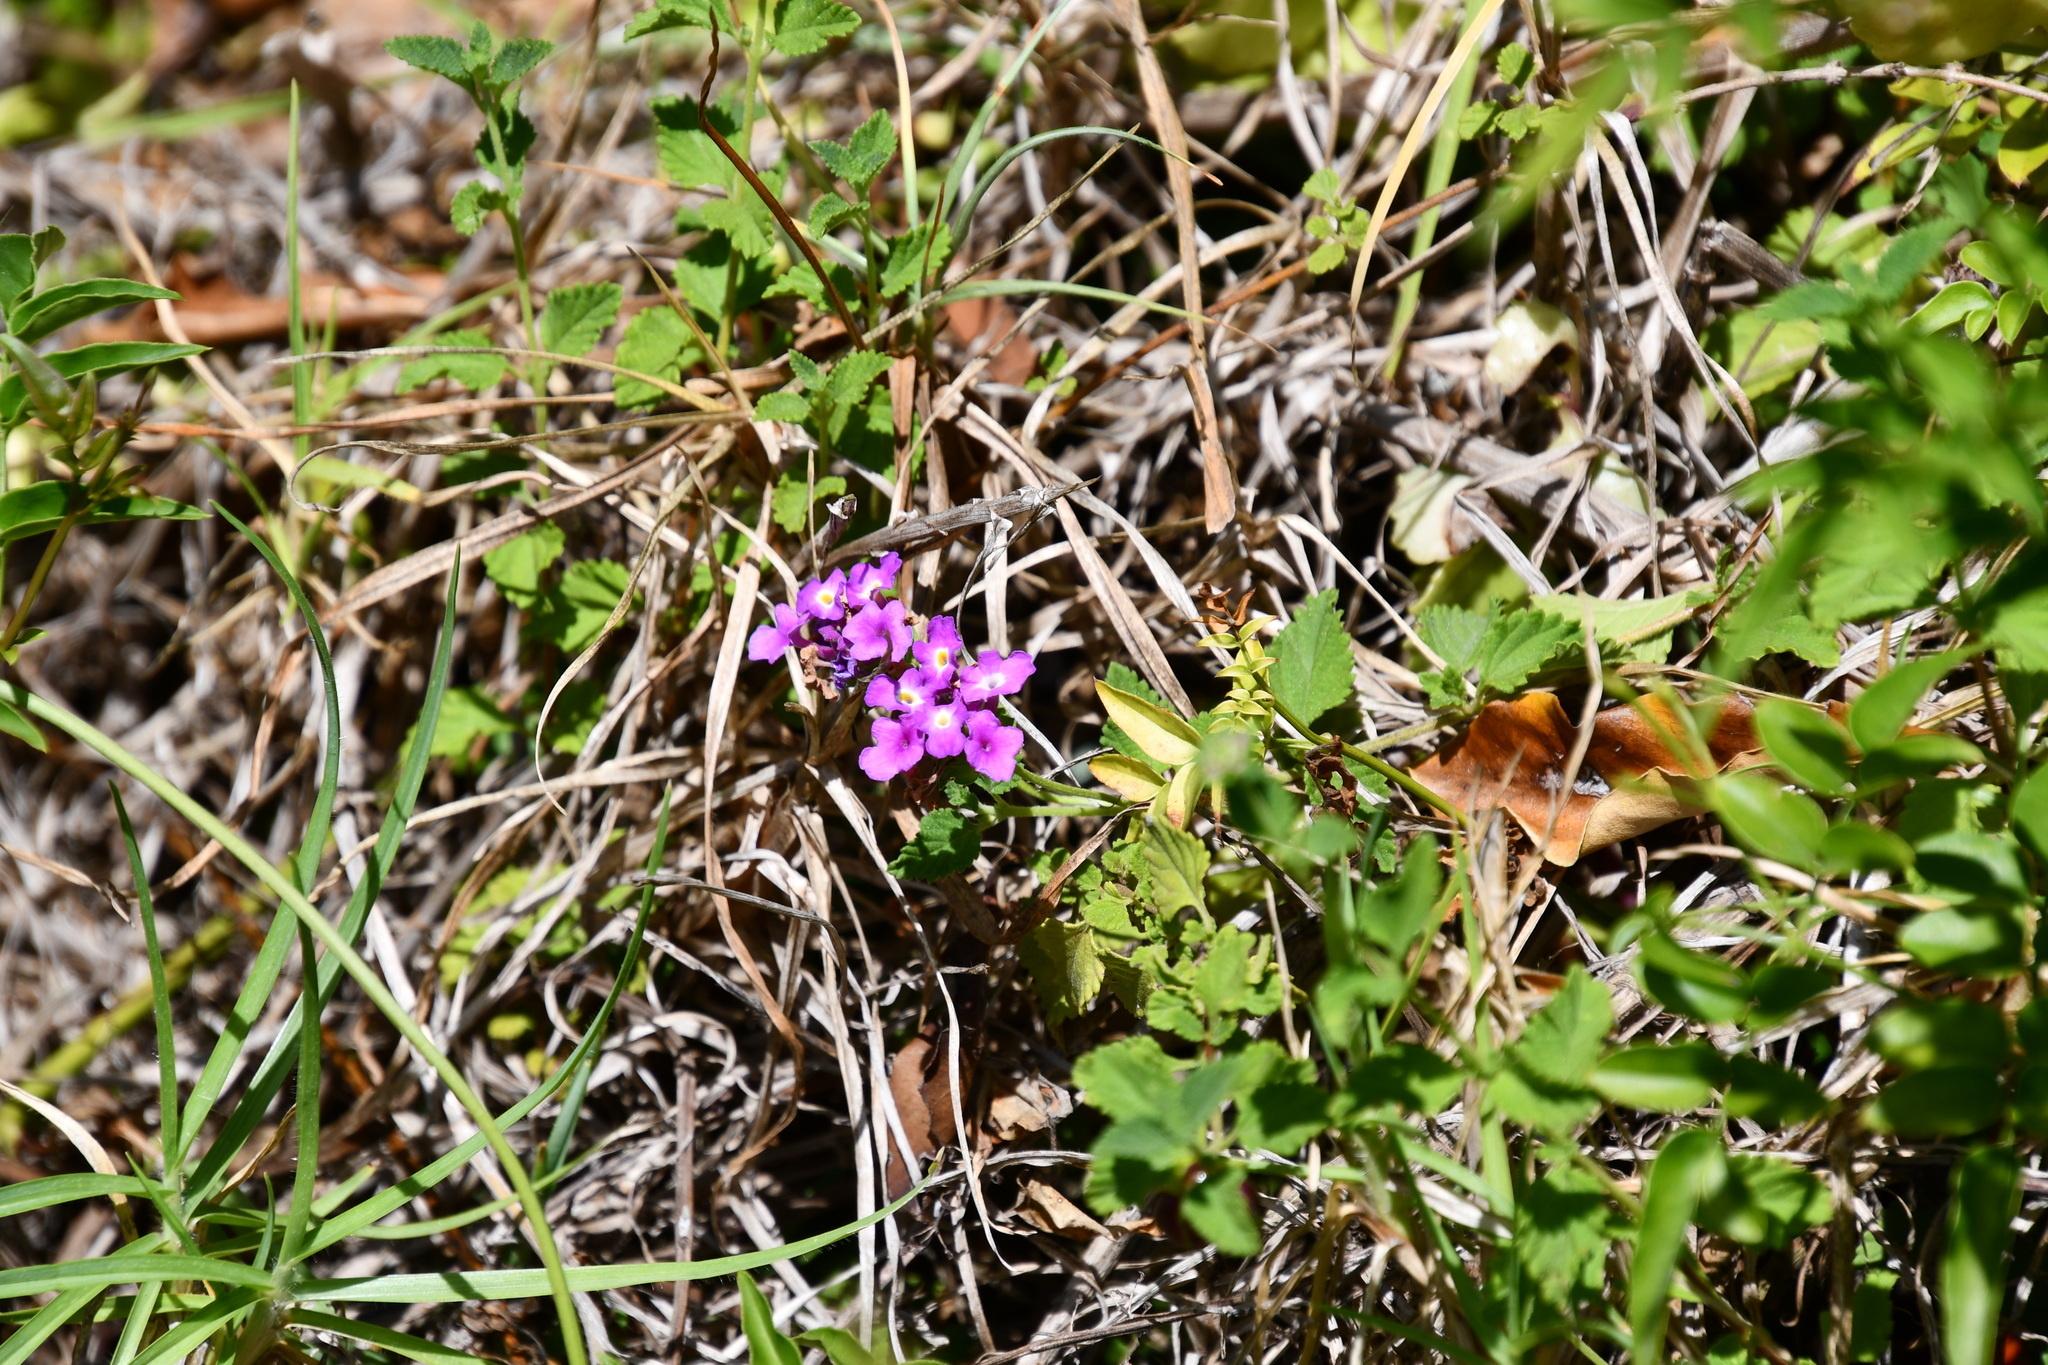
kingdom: Plantae
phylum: Tracheophyta
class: Magnoliopsida
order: Lamiales
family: Verbenaceae
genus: Lantana
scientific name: Lantana montevidensis
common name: Trailing shrubverbena
